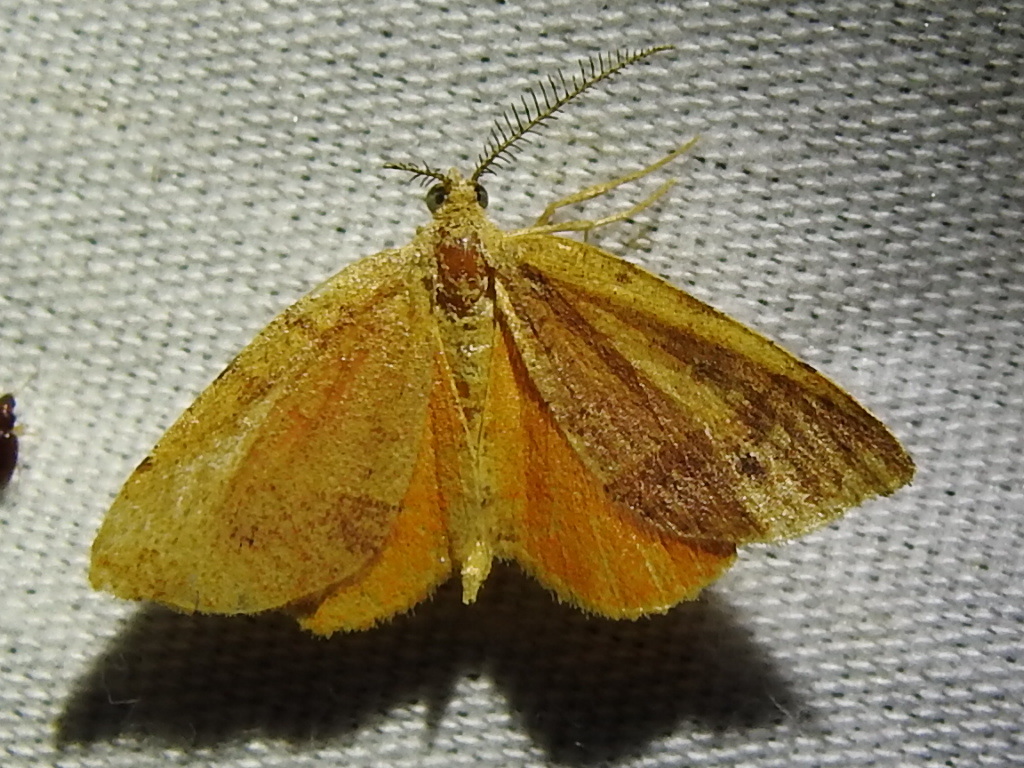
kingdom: Animalia
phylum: Arthropoda
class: Insecta
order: Lepidoptera
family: Geometridae
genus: Mellilla
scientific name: Mellilla xanthometata
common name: Orange wing moth
